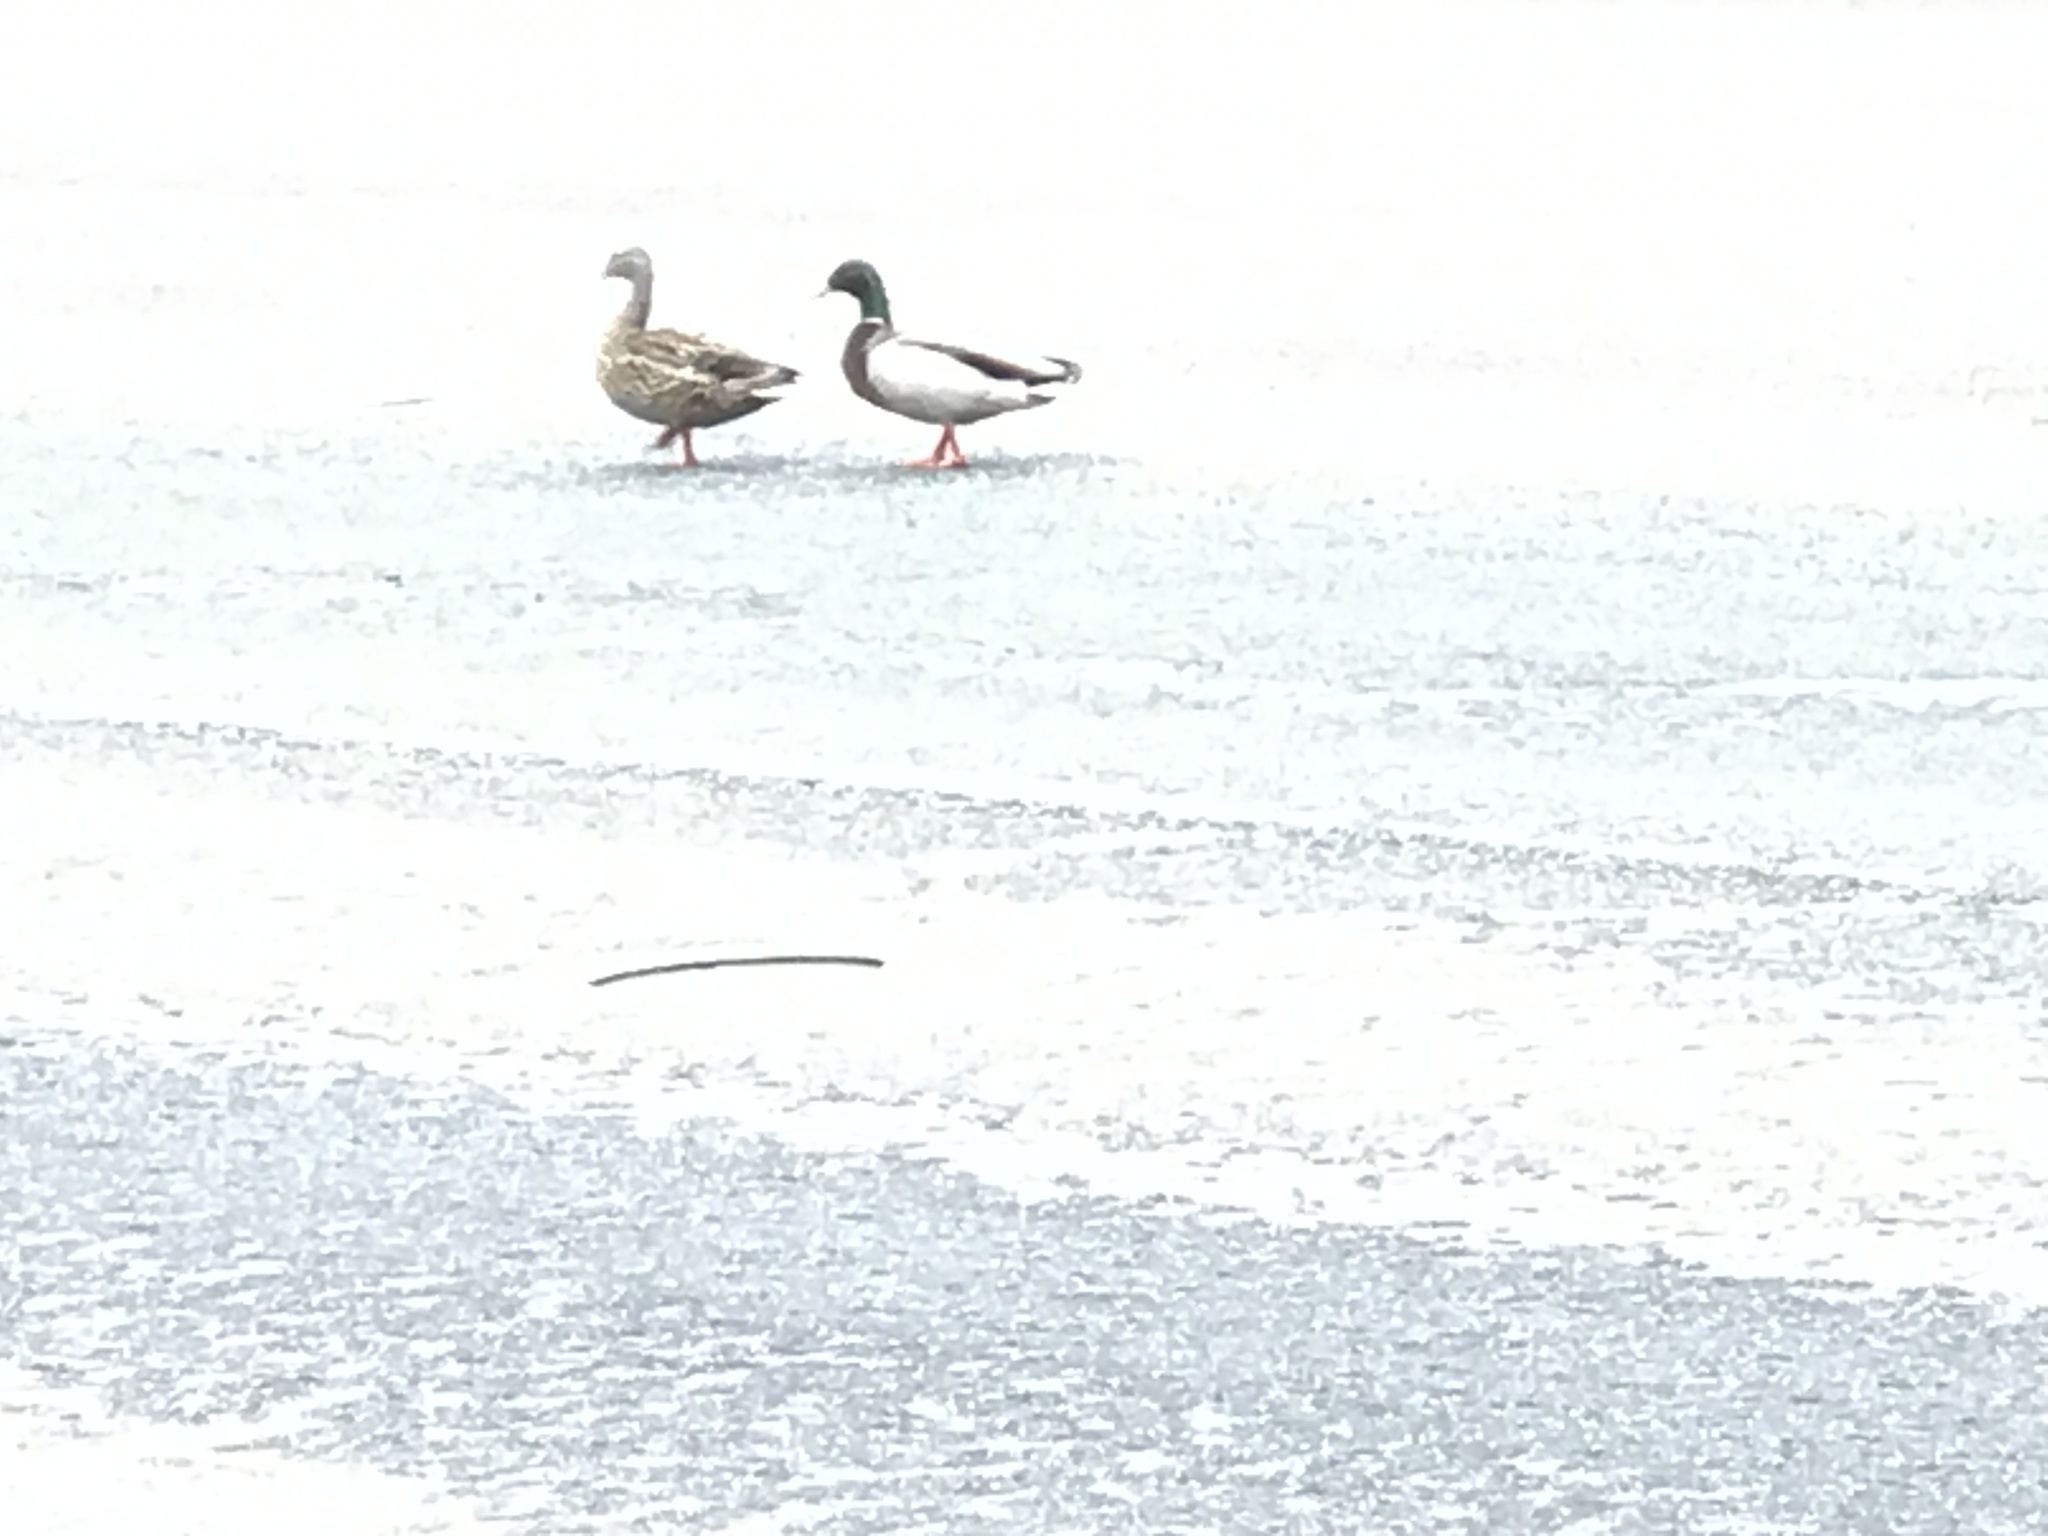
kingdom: Animalia
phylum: Chordata
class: Aves
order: Anseriformes
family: Anatidae
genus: Anas
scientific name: Anas platyrhynchos
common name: Mallard
